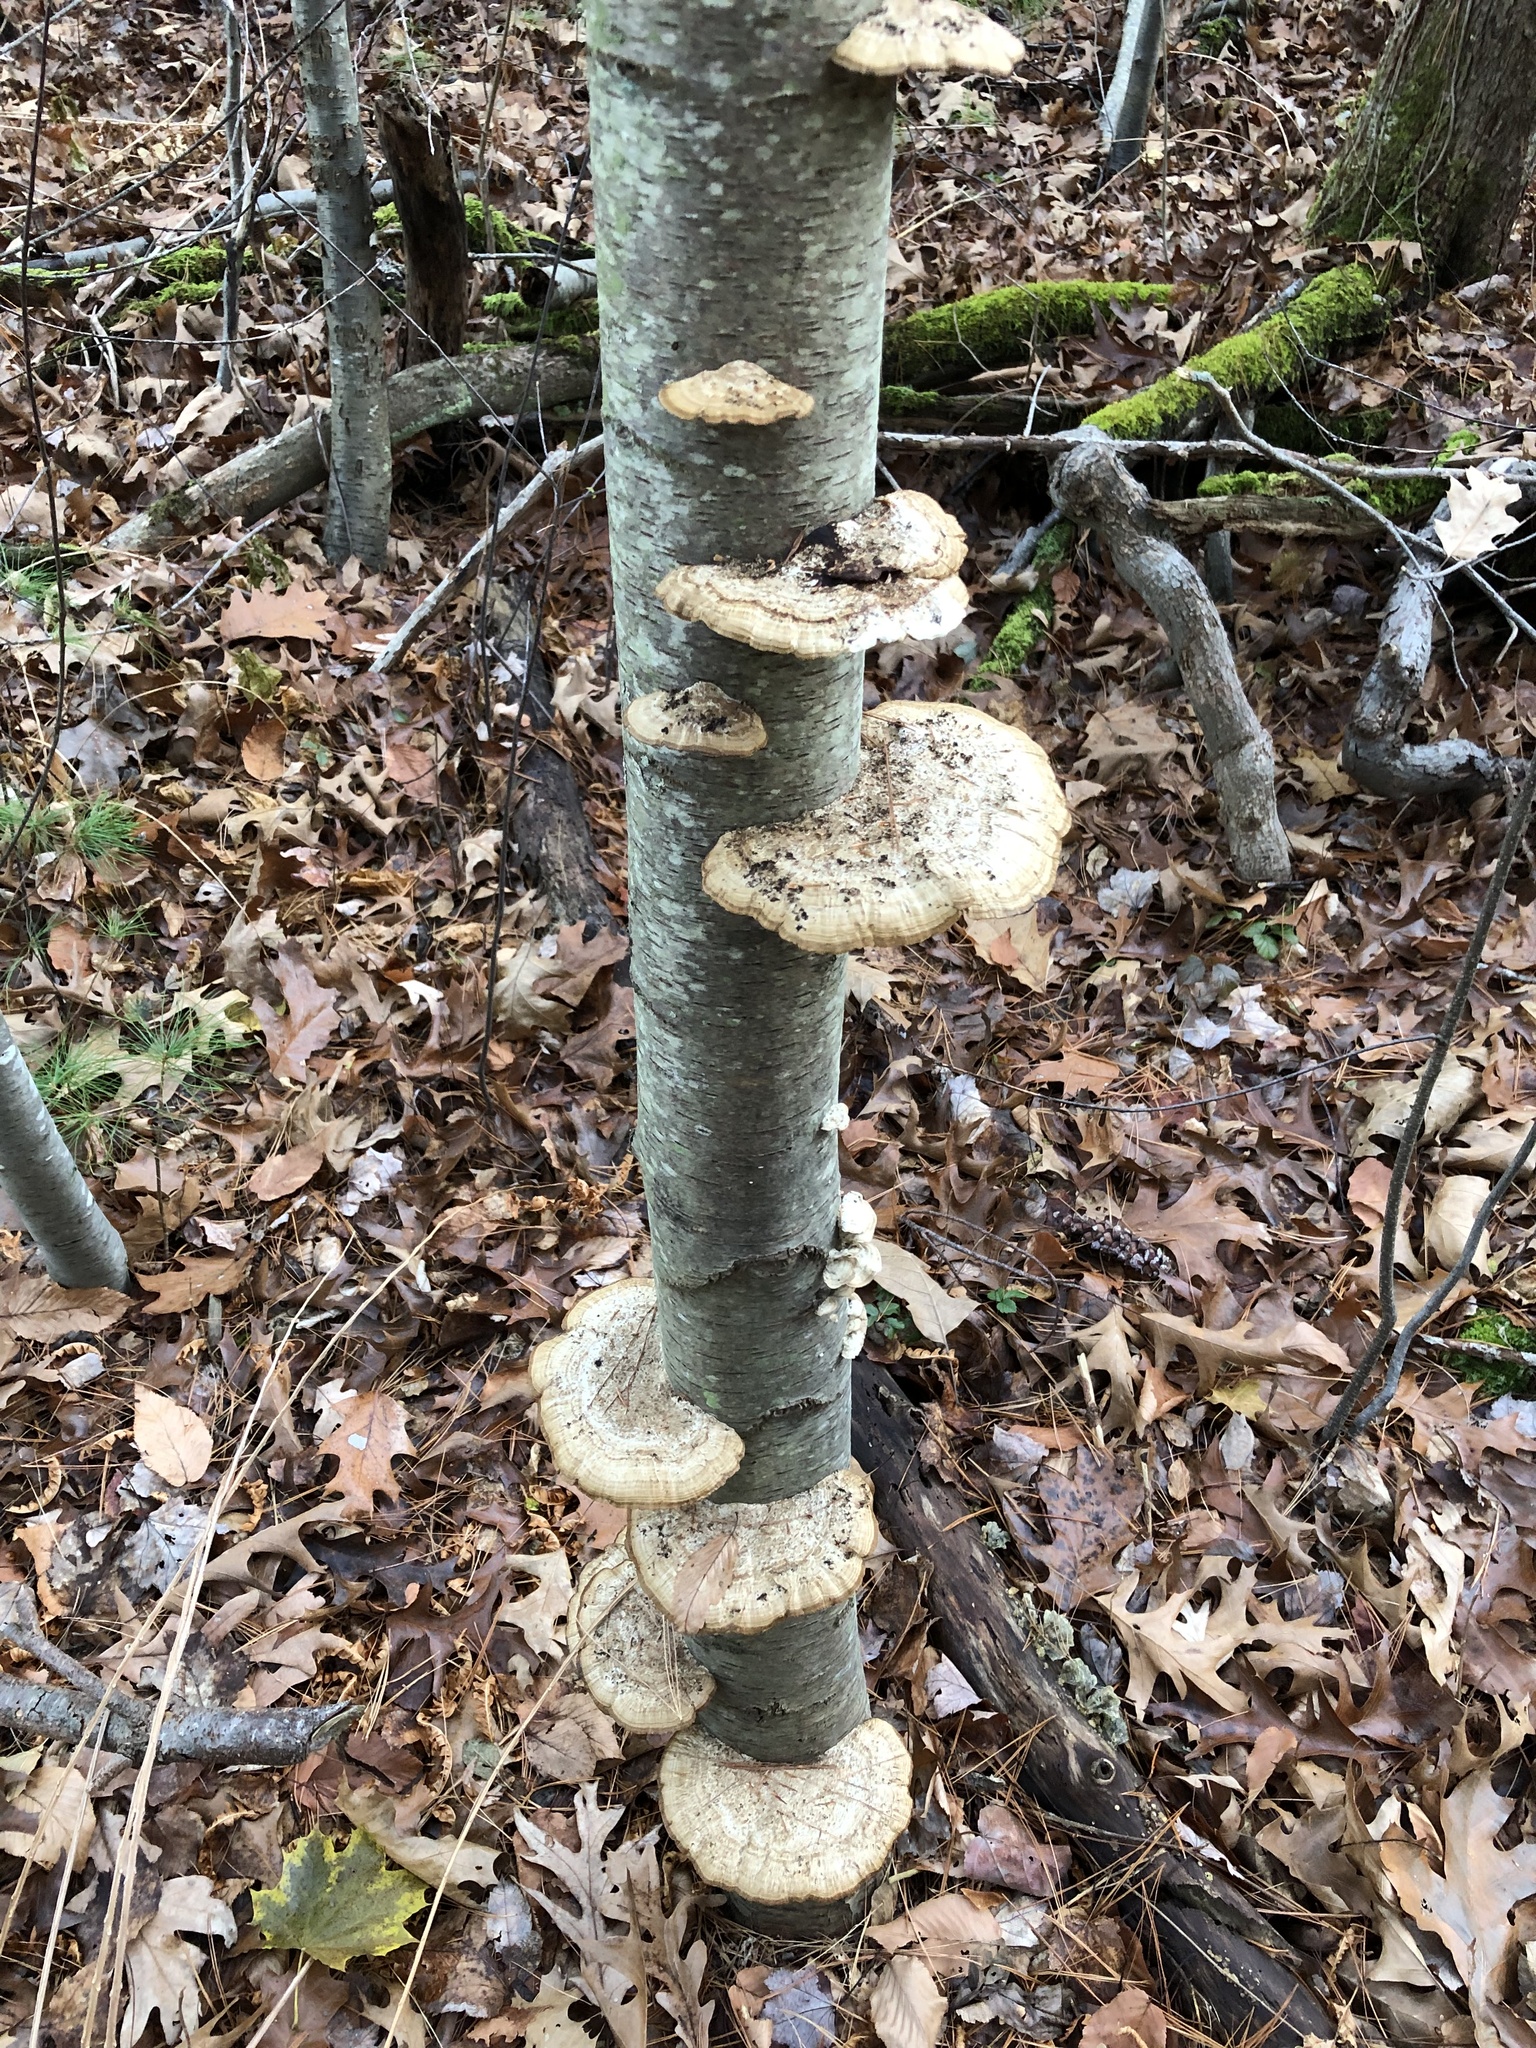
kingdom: Fungi
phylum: Basidiomycota
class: Agaricomycetes
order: Polyporales
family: Polyporaceae
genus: Daedaleopsis
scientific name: Daedaleopsis confragosa
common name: Blushing bracket
